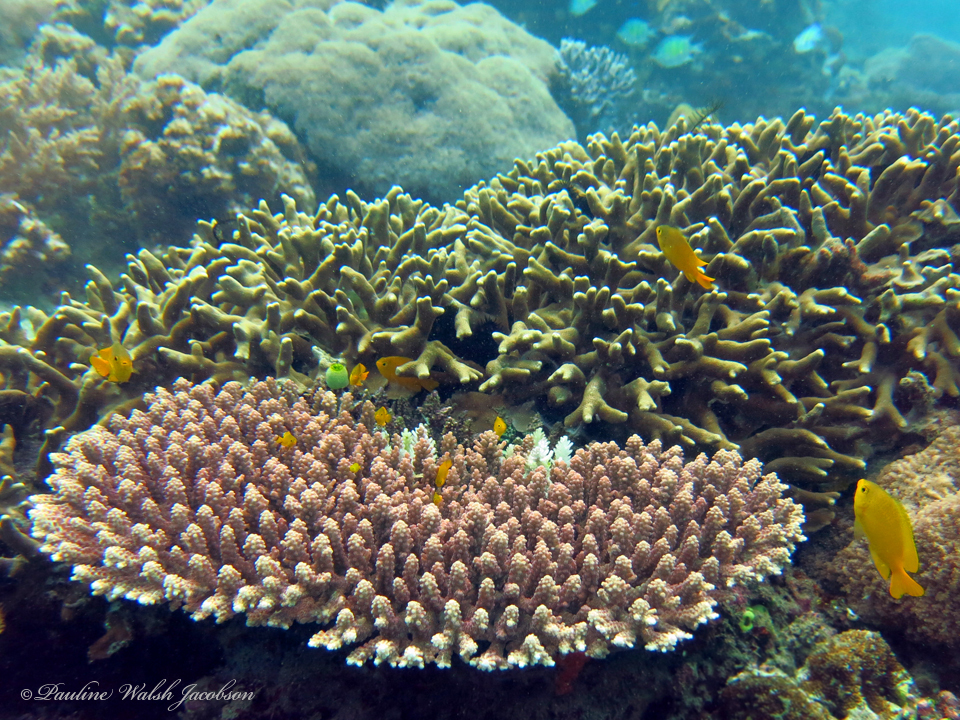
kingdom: Animalia
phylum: Chordata
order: Perciformes
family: Pomacentridae
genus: Pomacentrus
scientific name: Pomacentrus moluccensis
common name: Lemon damsel
